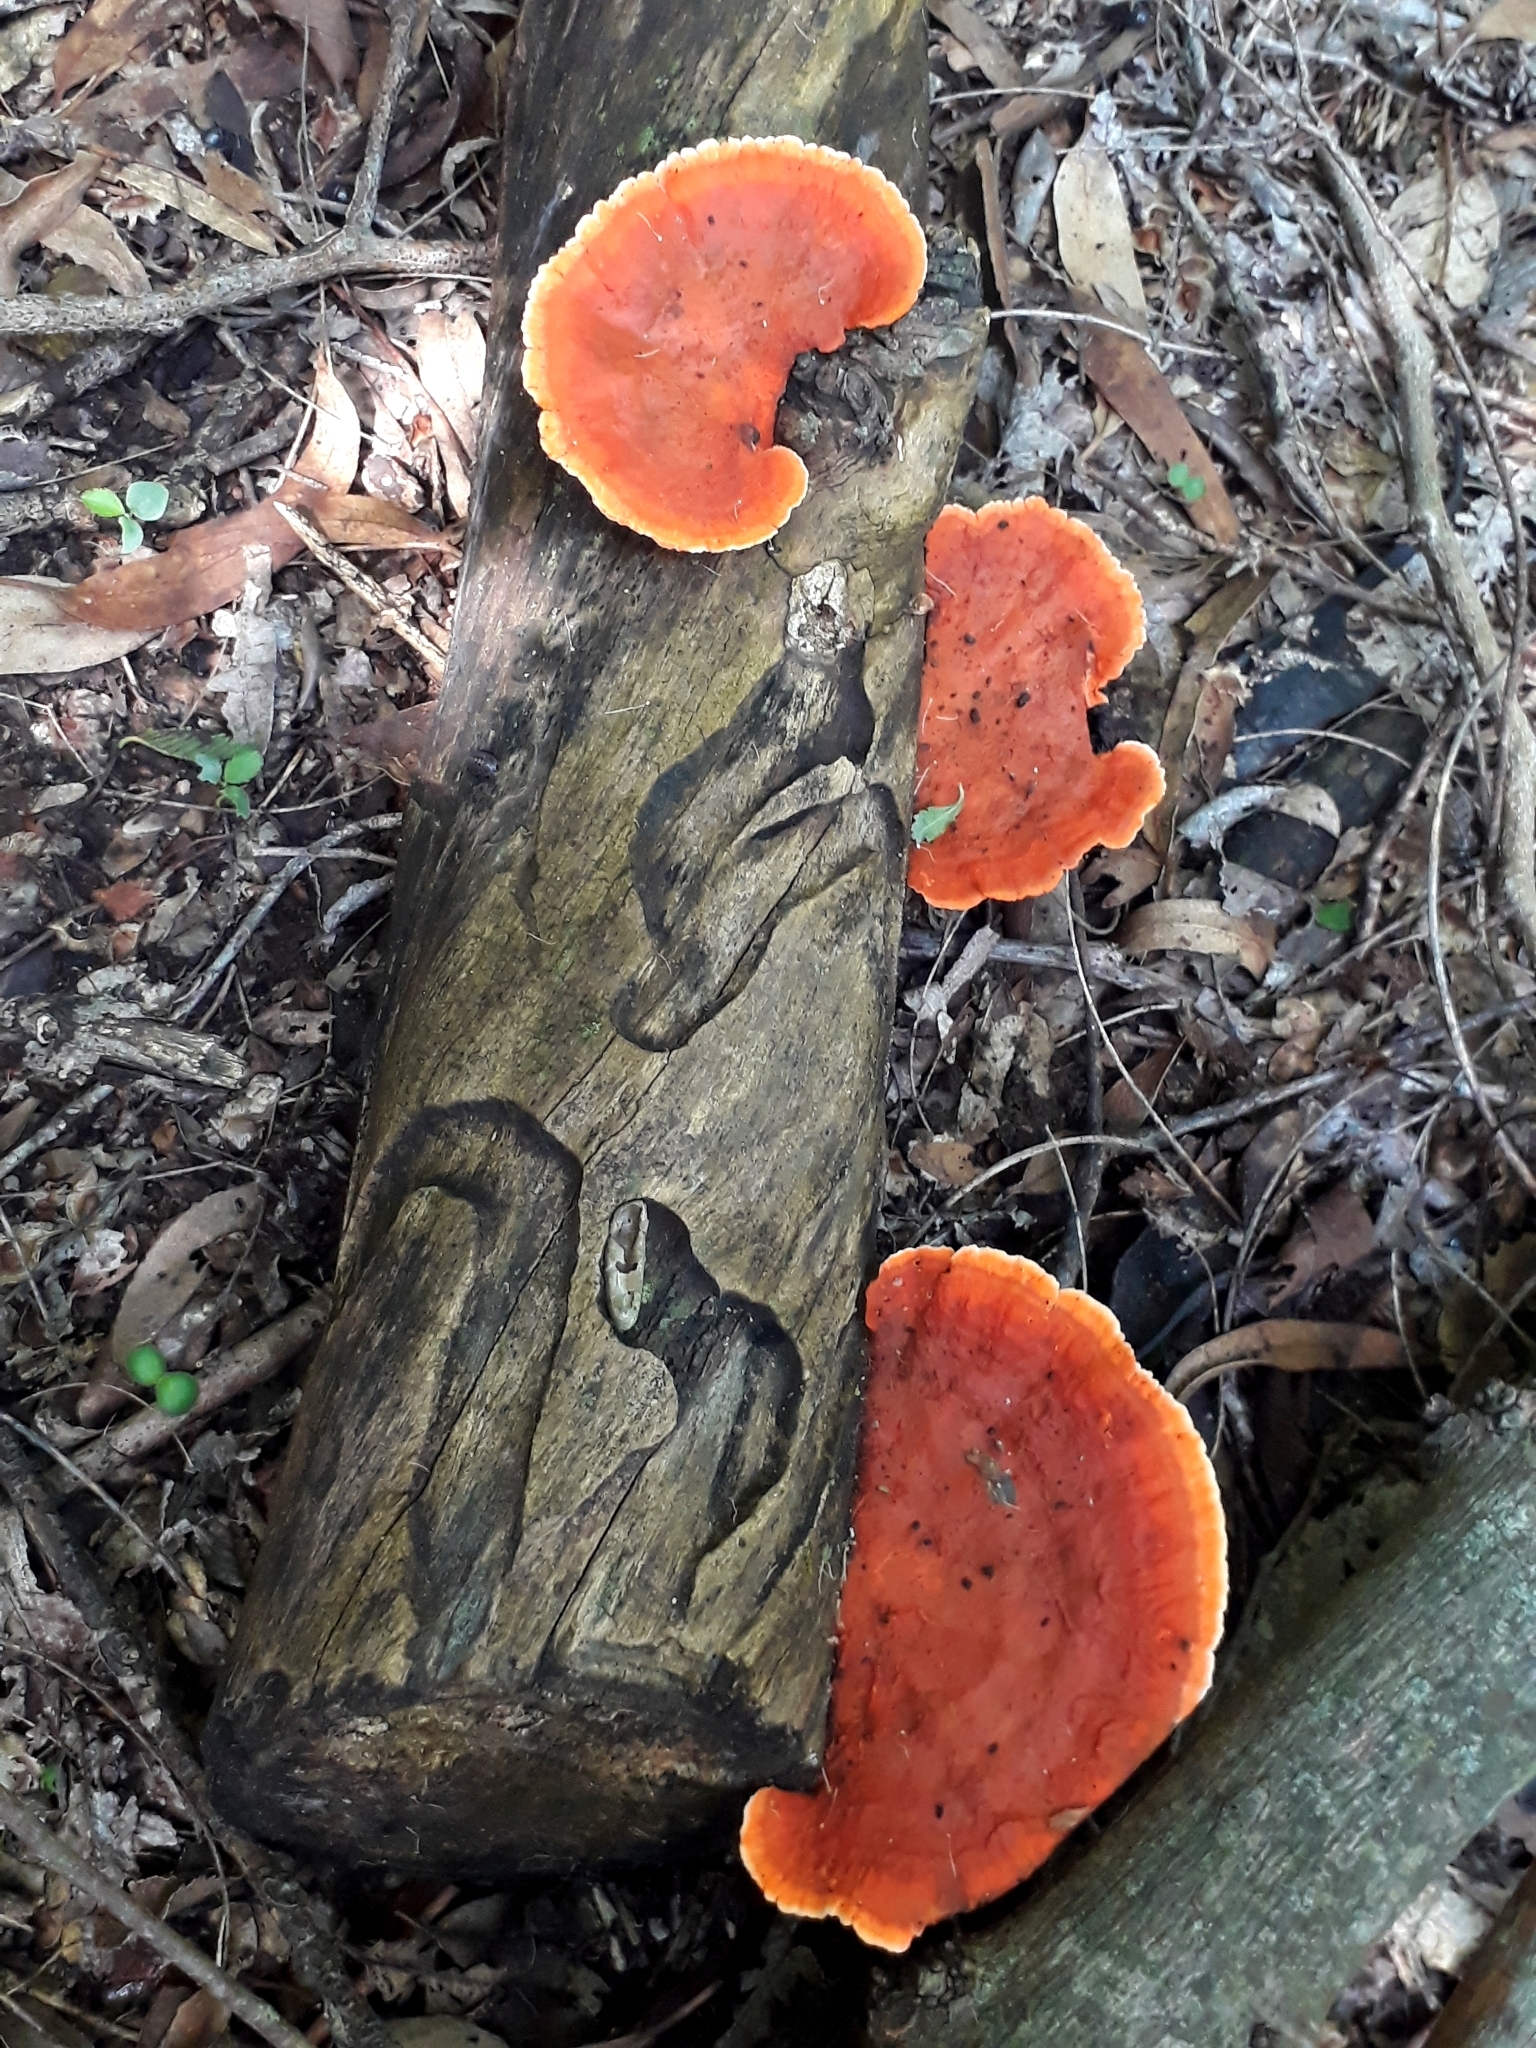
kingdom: Fungi
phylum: Basidiomycota
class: Agaricomycetes
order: Polyporales
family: Polyporaceae
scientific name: Polyporaceae
